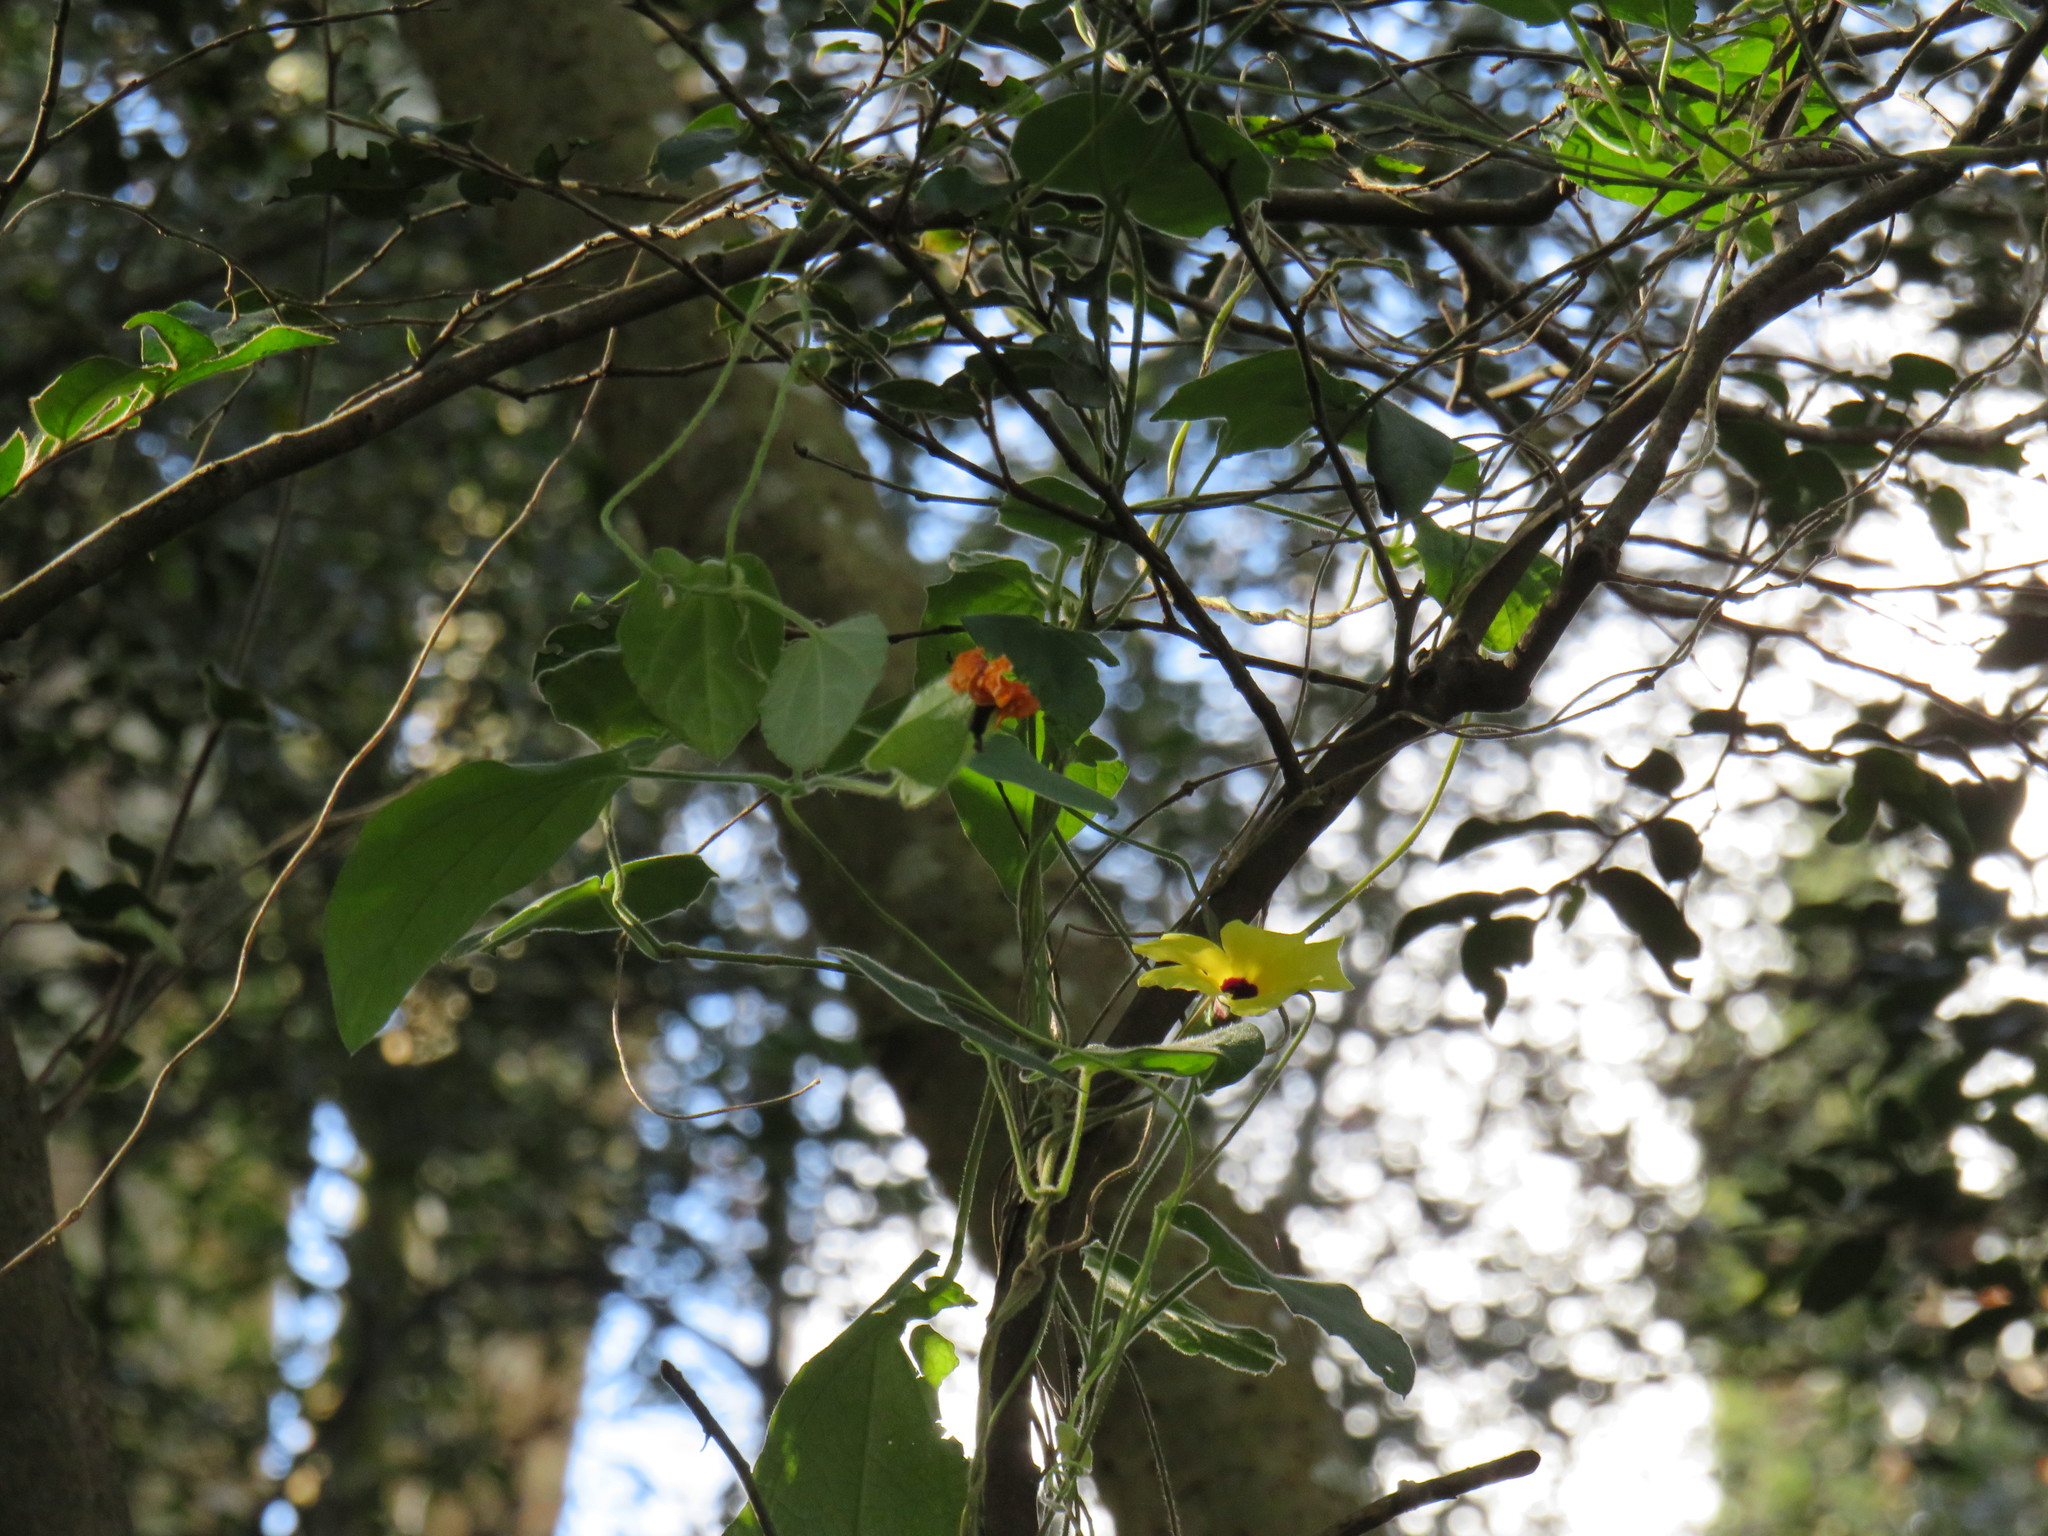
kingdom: Plantae
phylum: Tracheophyta
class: Magnoliopsida
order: Lamiales
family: Acanthaceae
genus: Thunbergia
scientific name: Thunbergia alata
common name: Blackeyed susan vine
